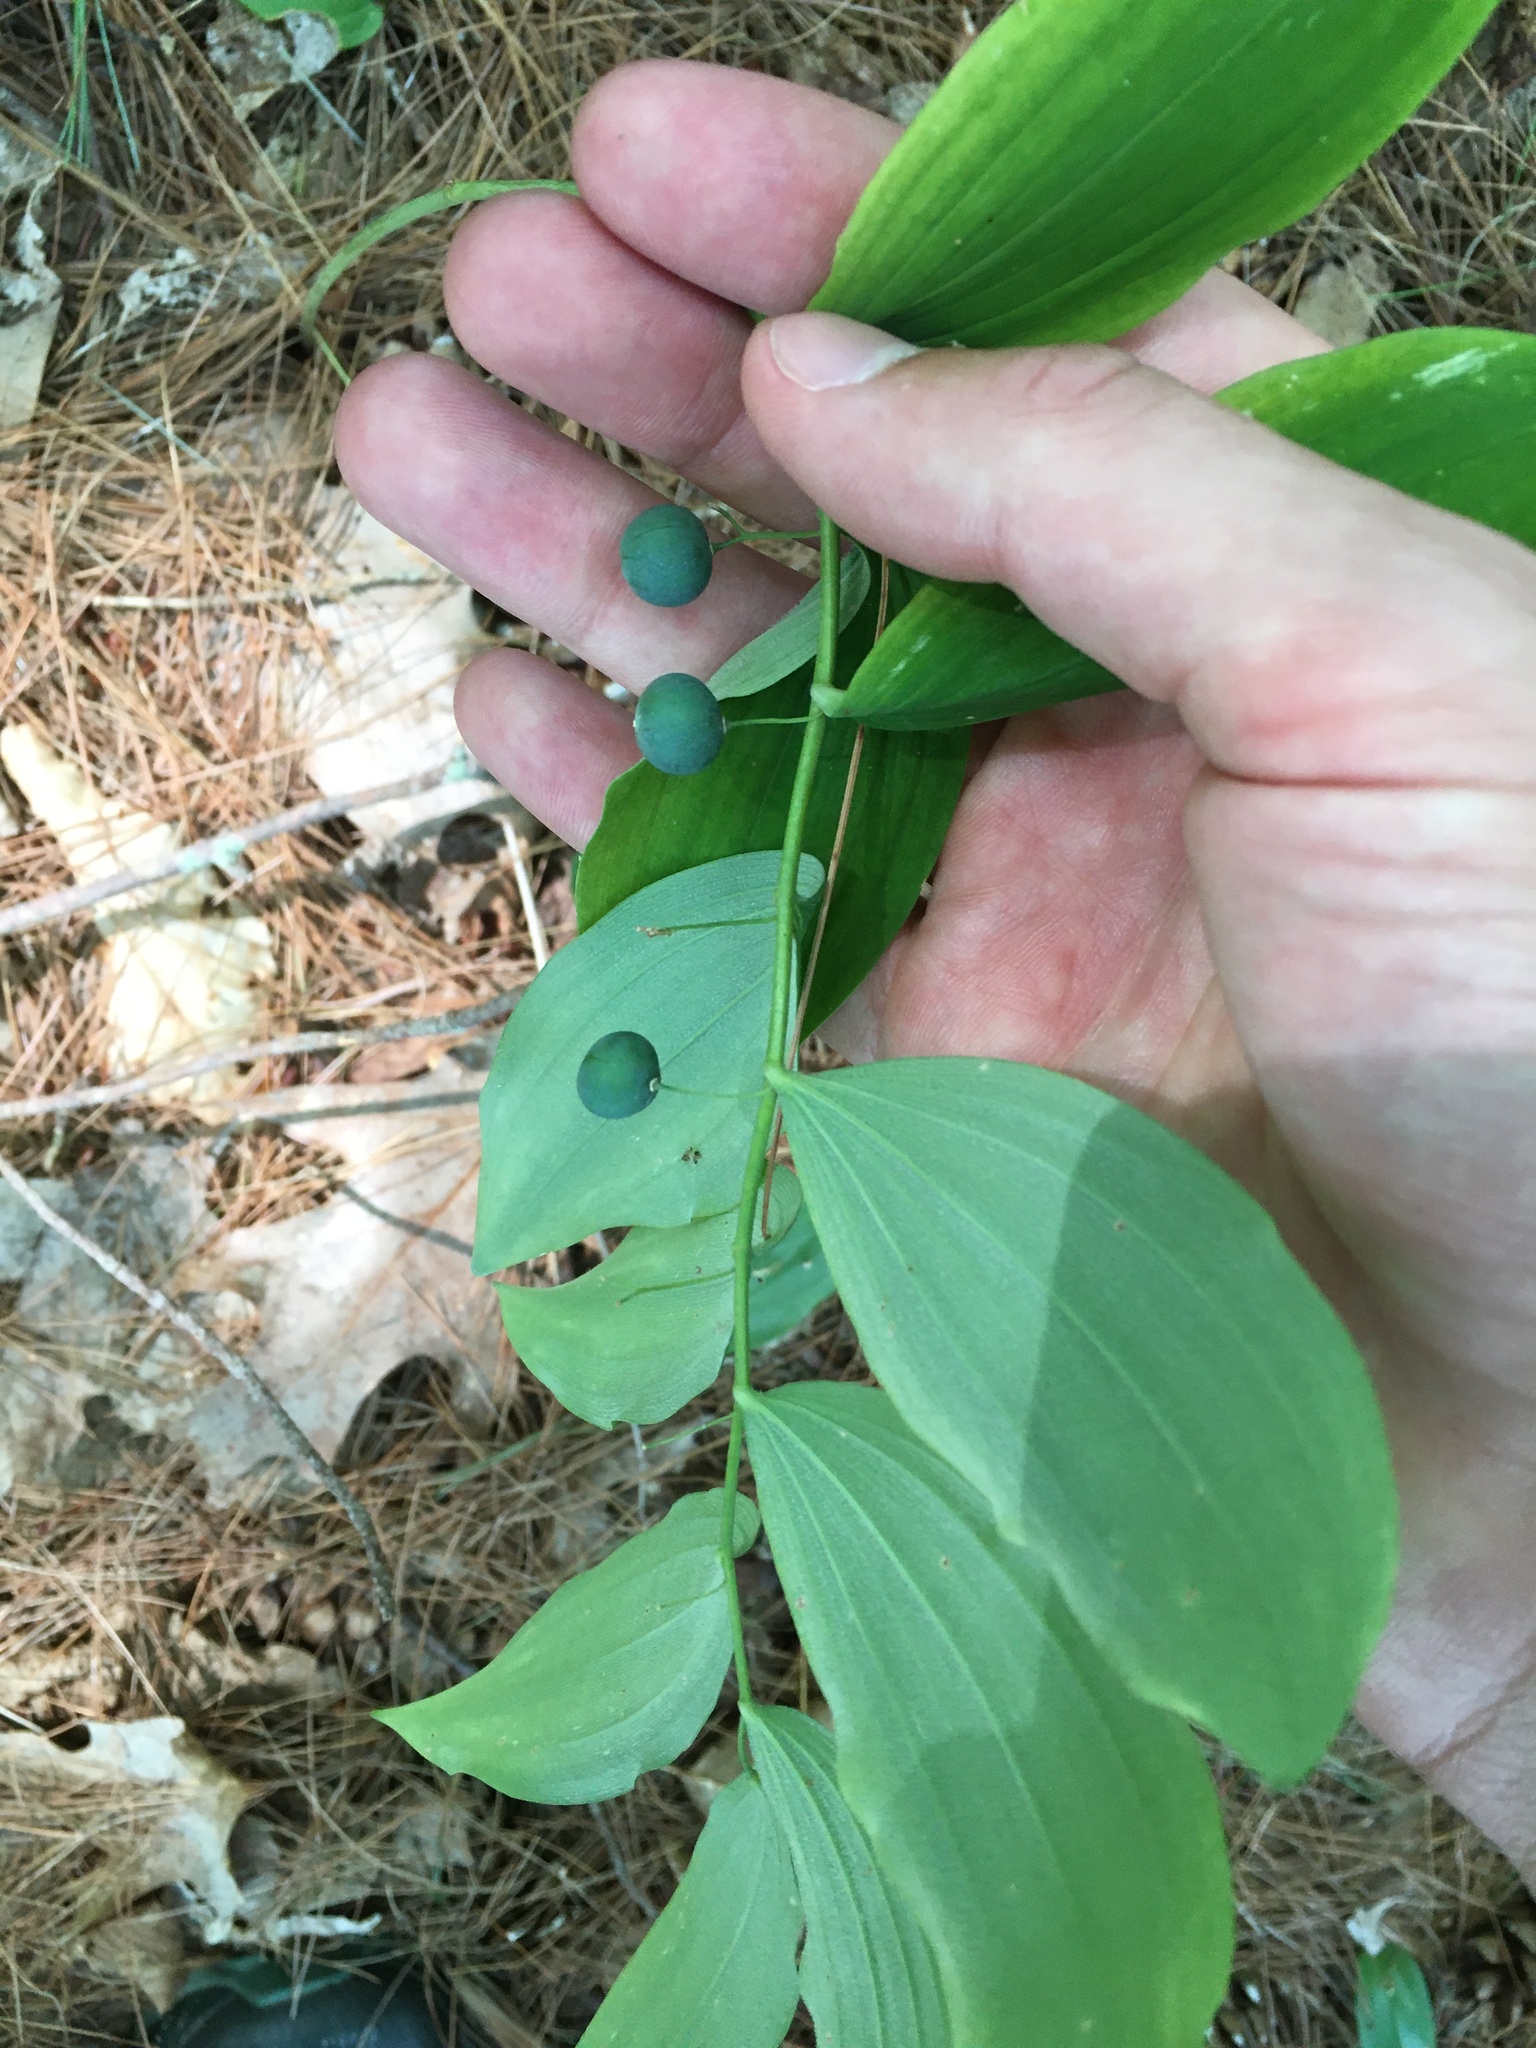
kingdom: Plantae
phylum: Tracheophyta
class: Liliopsida
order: Asparagales
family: Asparagaceae
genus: Polygonatum
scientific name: Polygonatum pubescens
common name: Downy solomon's seal
